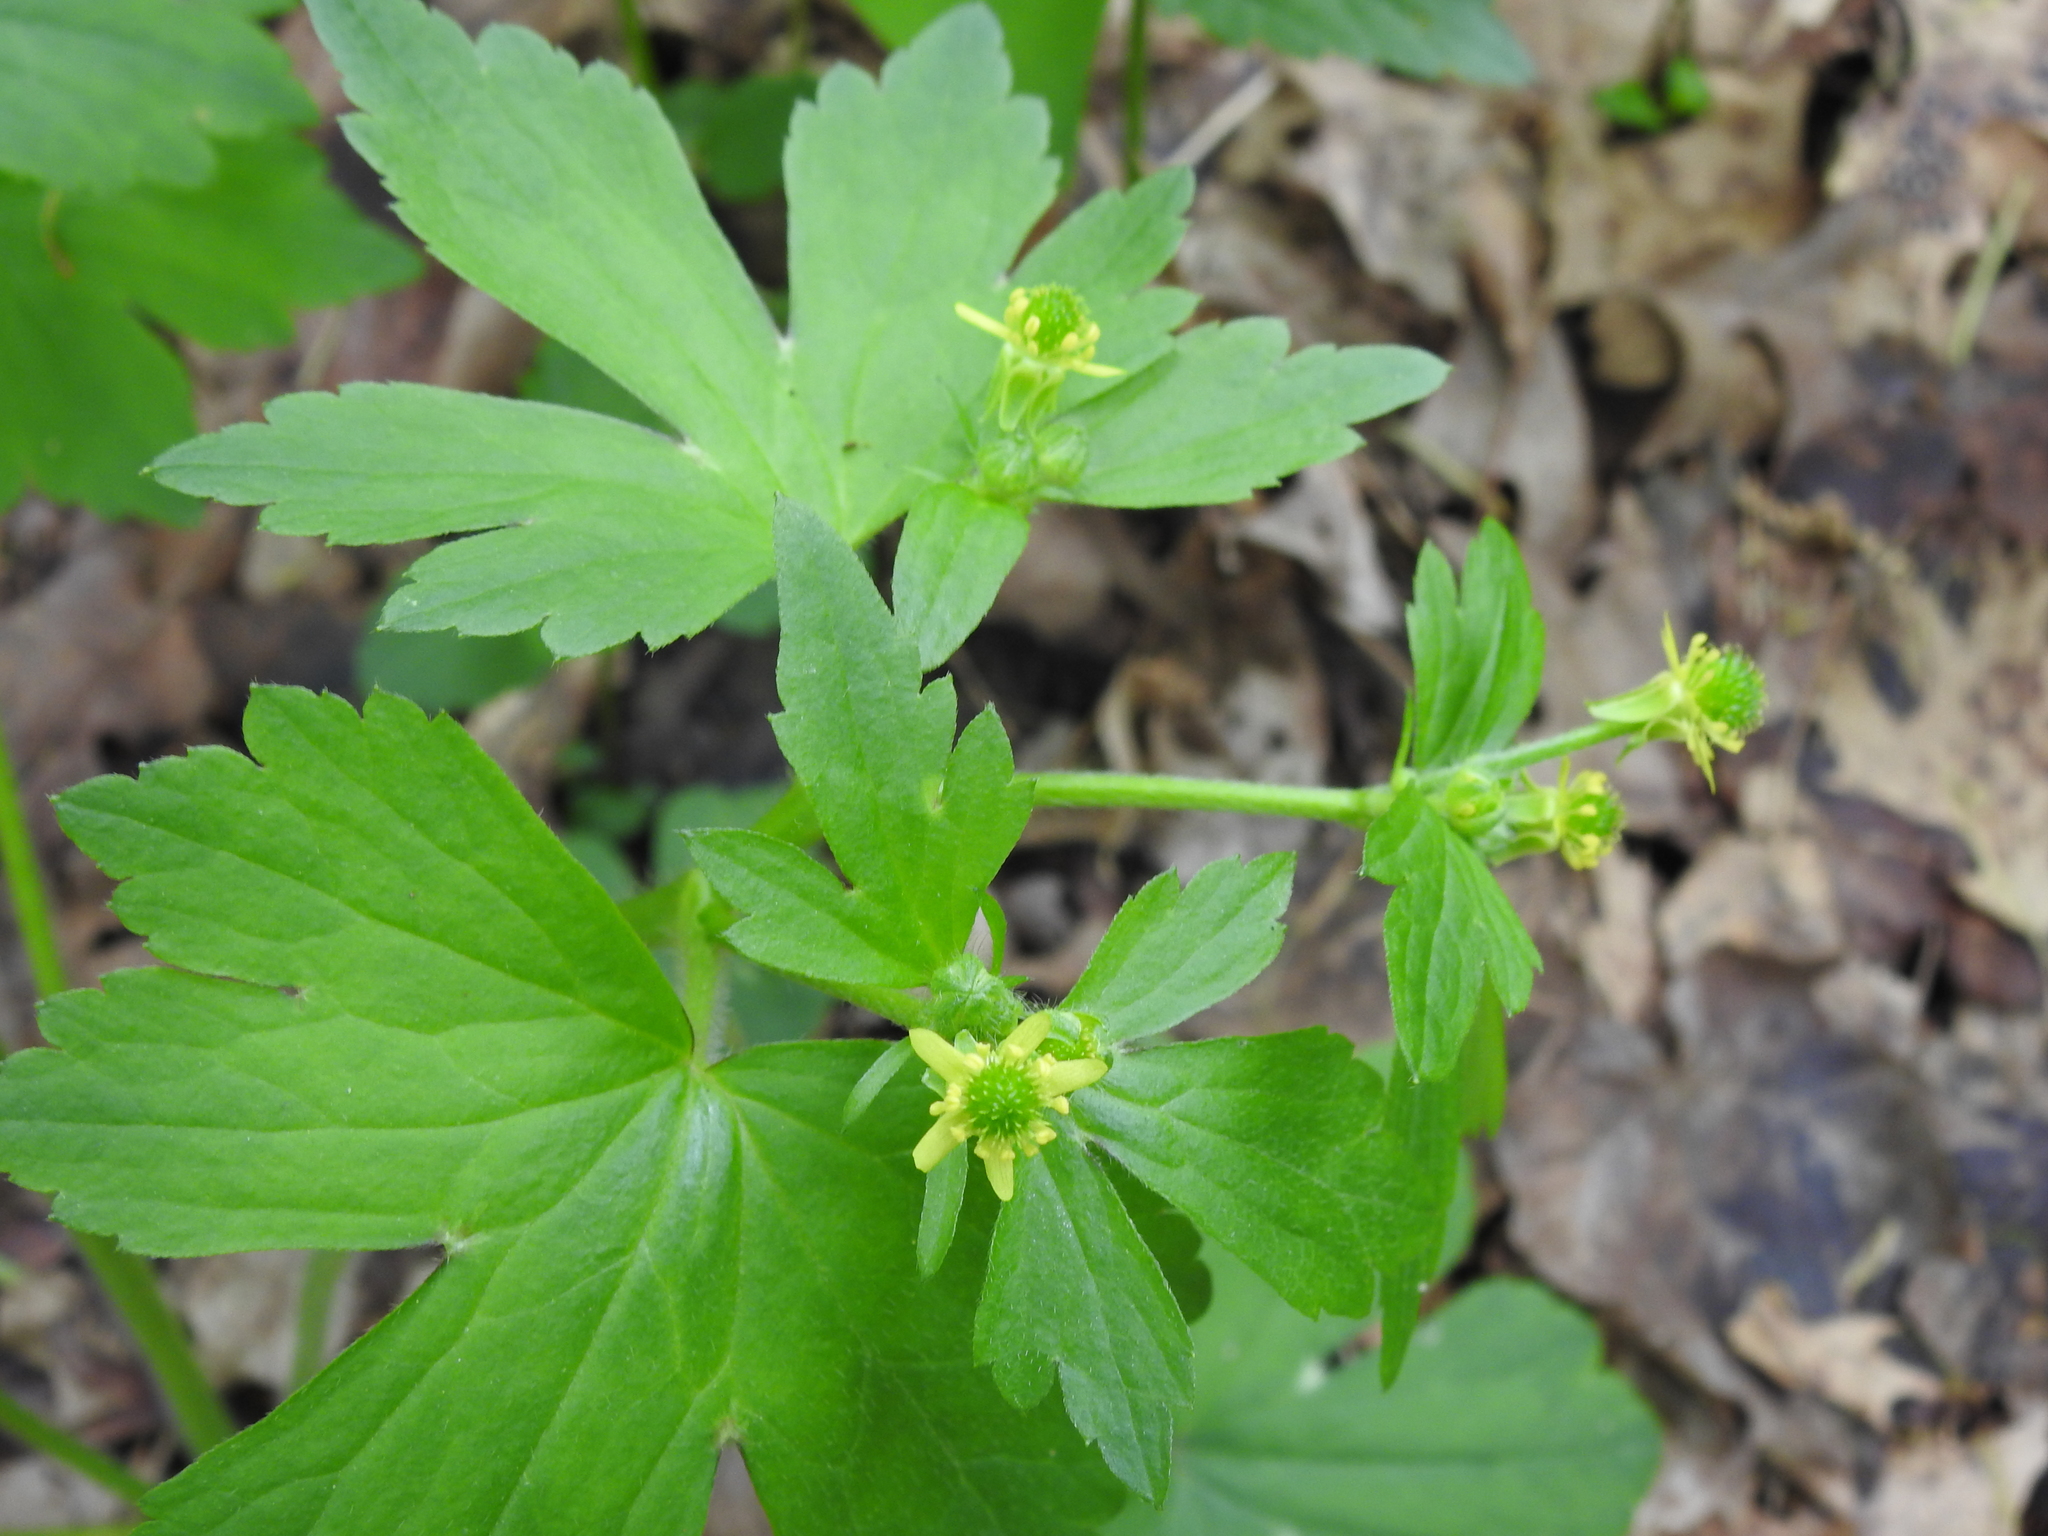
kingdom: Plantae
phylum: Tracheophyta
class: Magnoliopsida
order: Ranunculales
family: Ranunculaceae
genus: Ranunculus
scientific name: Ranunculus recurvatus
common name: Blisterwort
